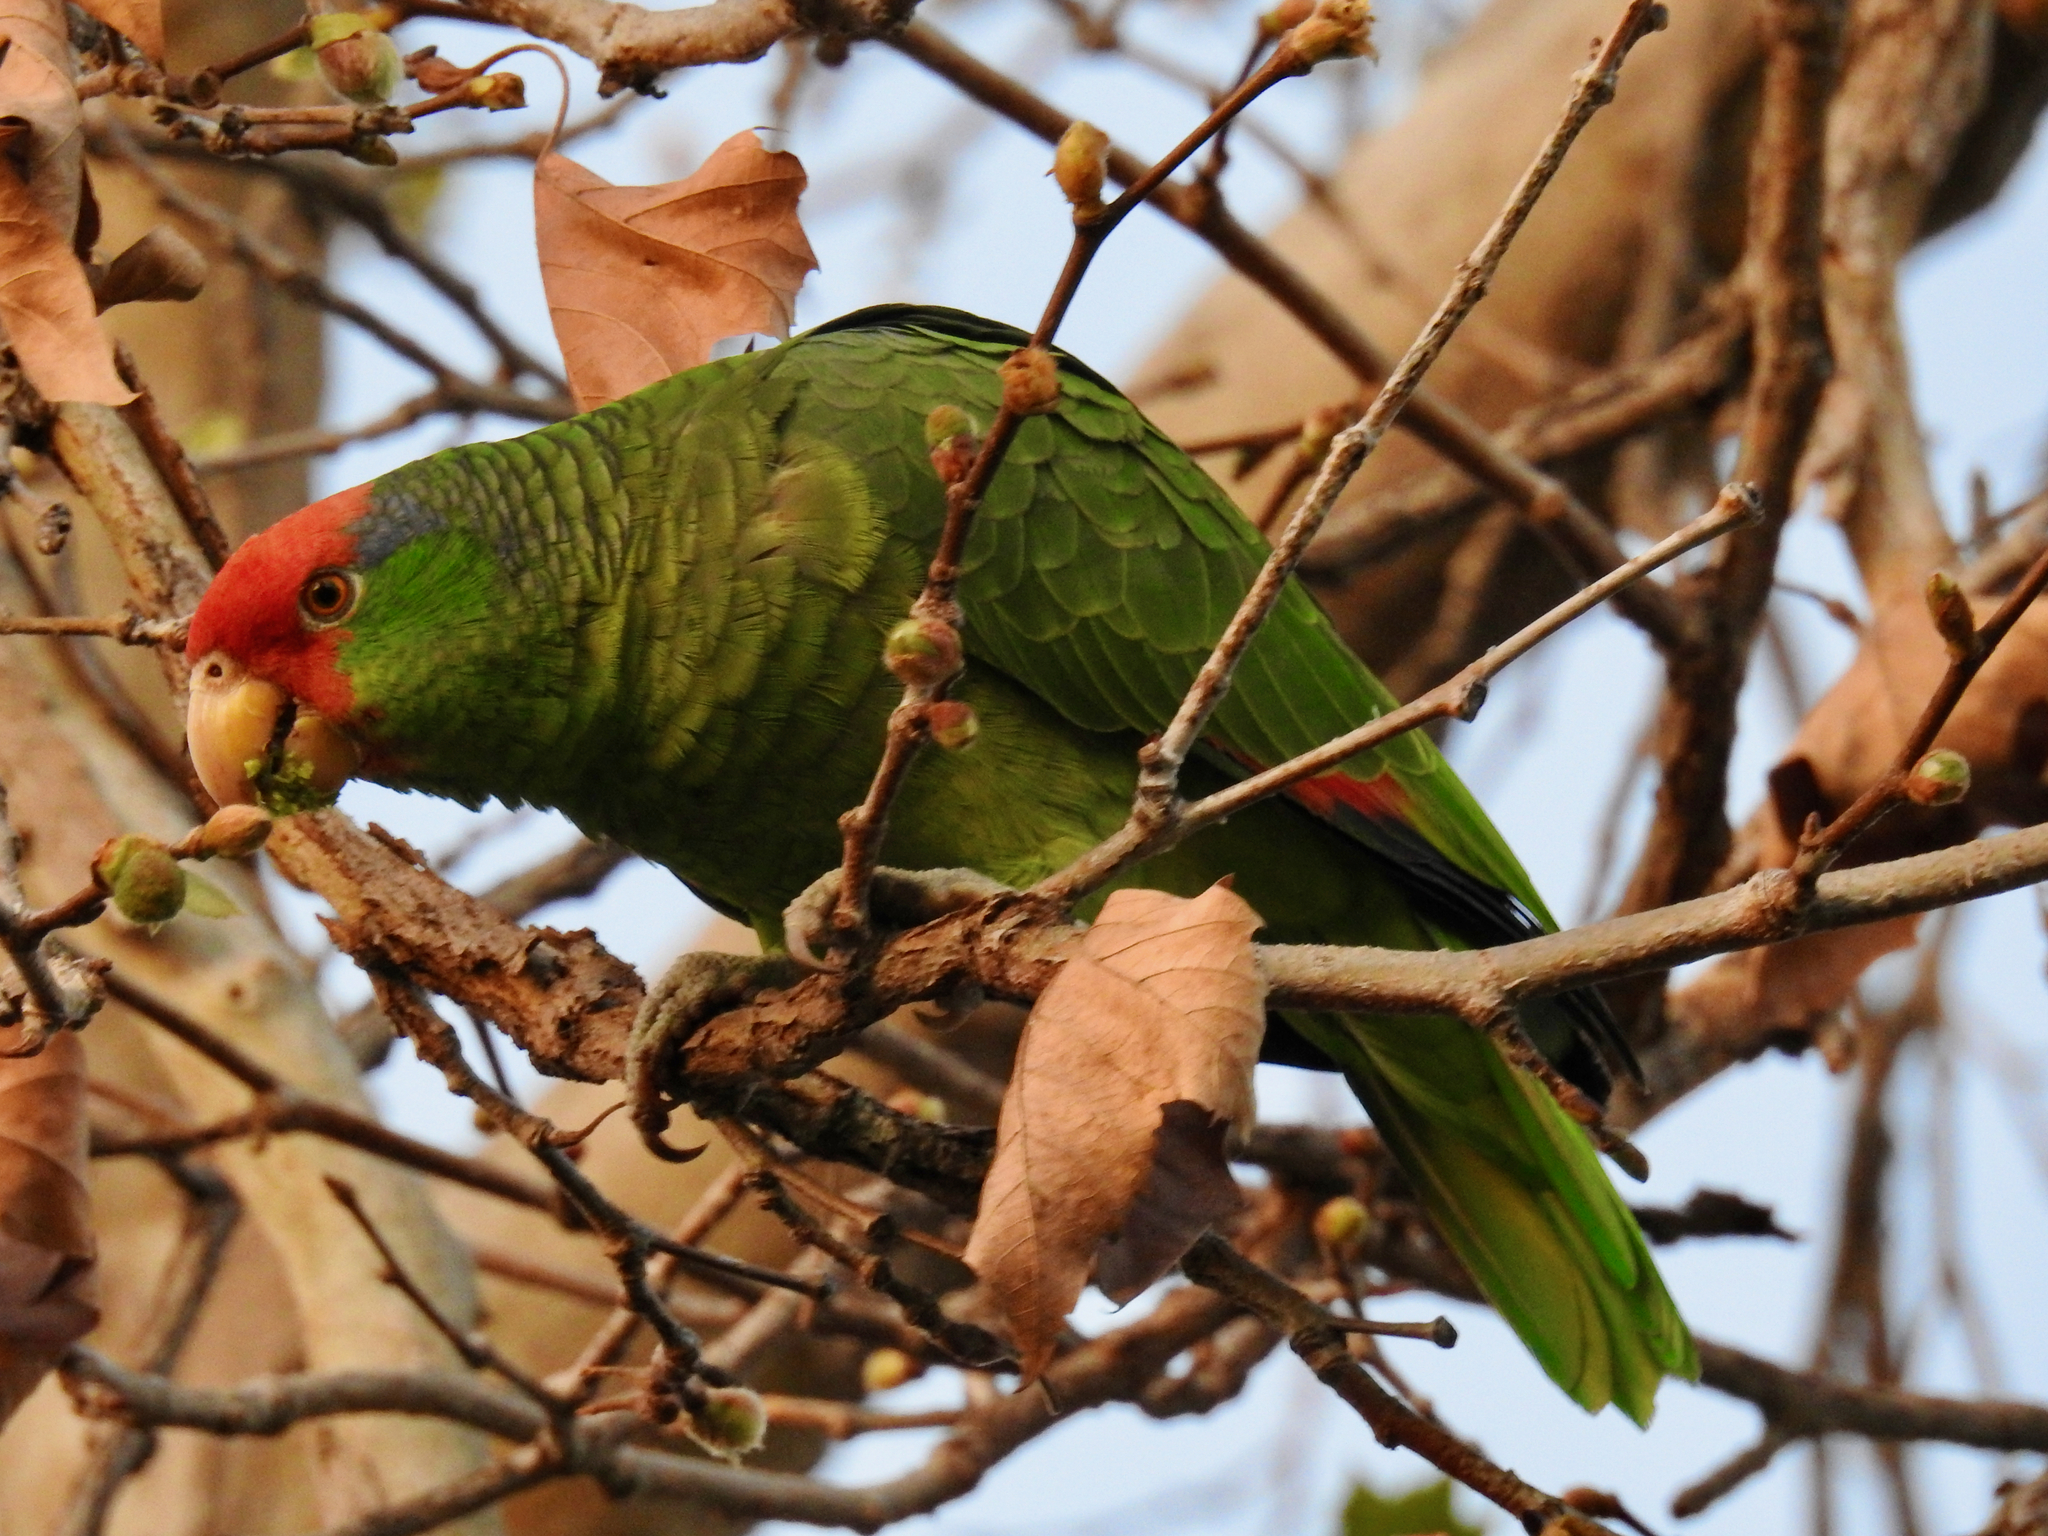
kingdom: Animalia
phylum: Chordata
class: Aves
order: Psittaciformes
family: Psittacidae
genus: Amazona
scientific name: Amazona viridigenalis
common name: Red-crowned amazon
